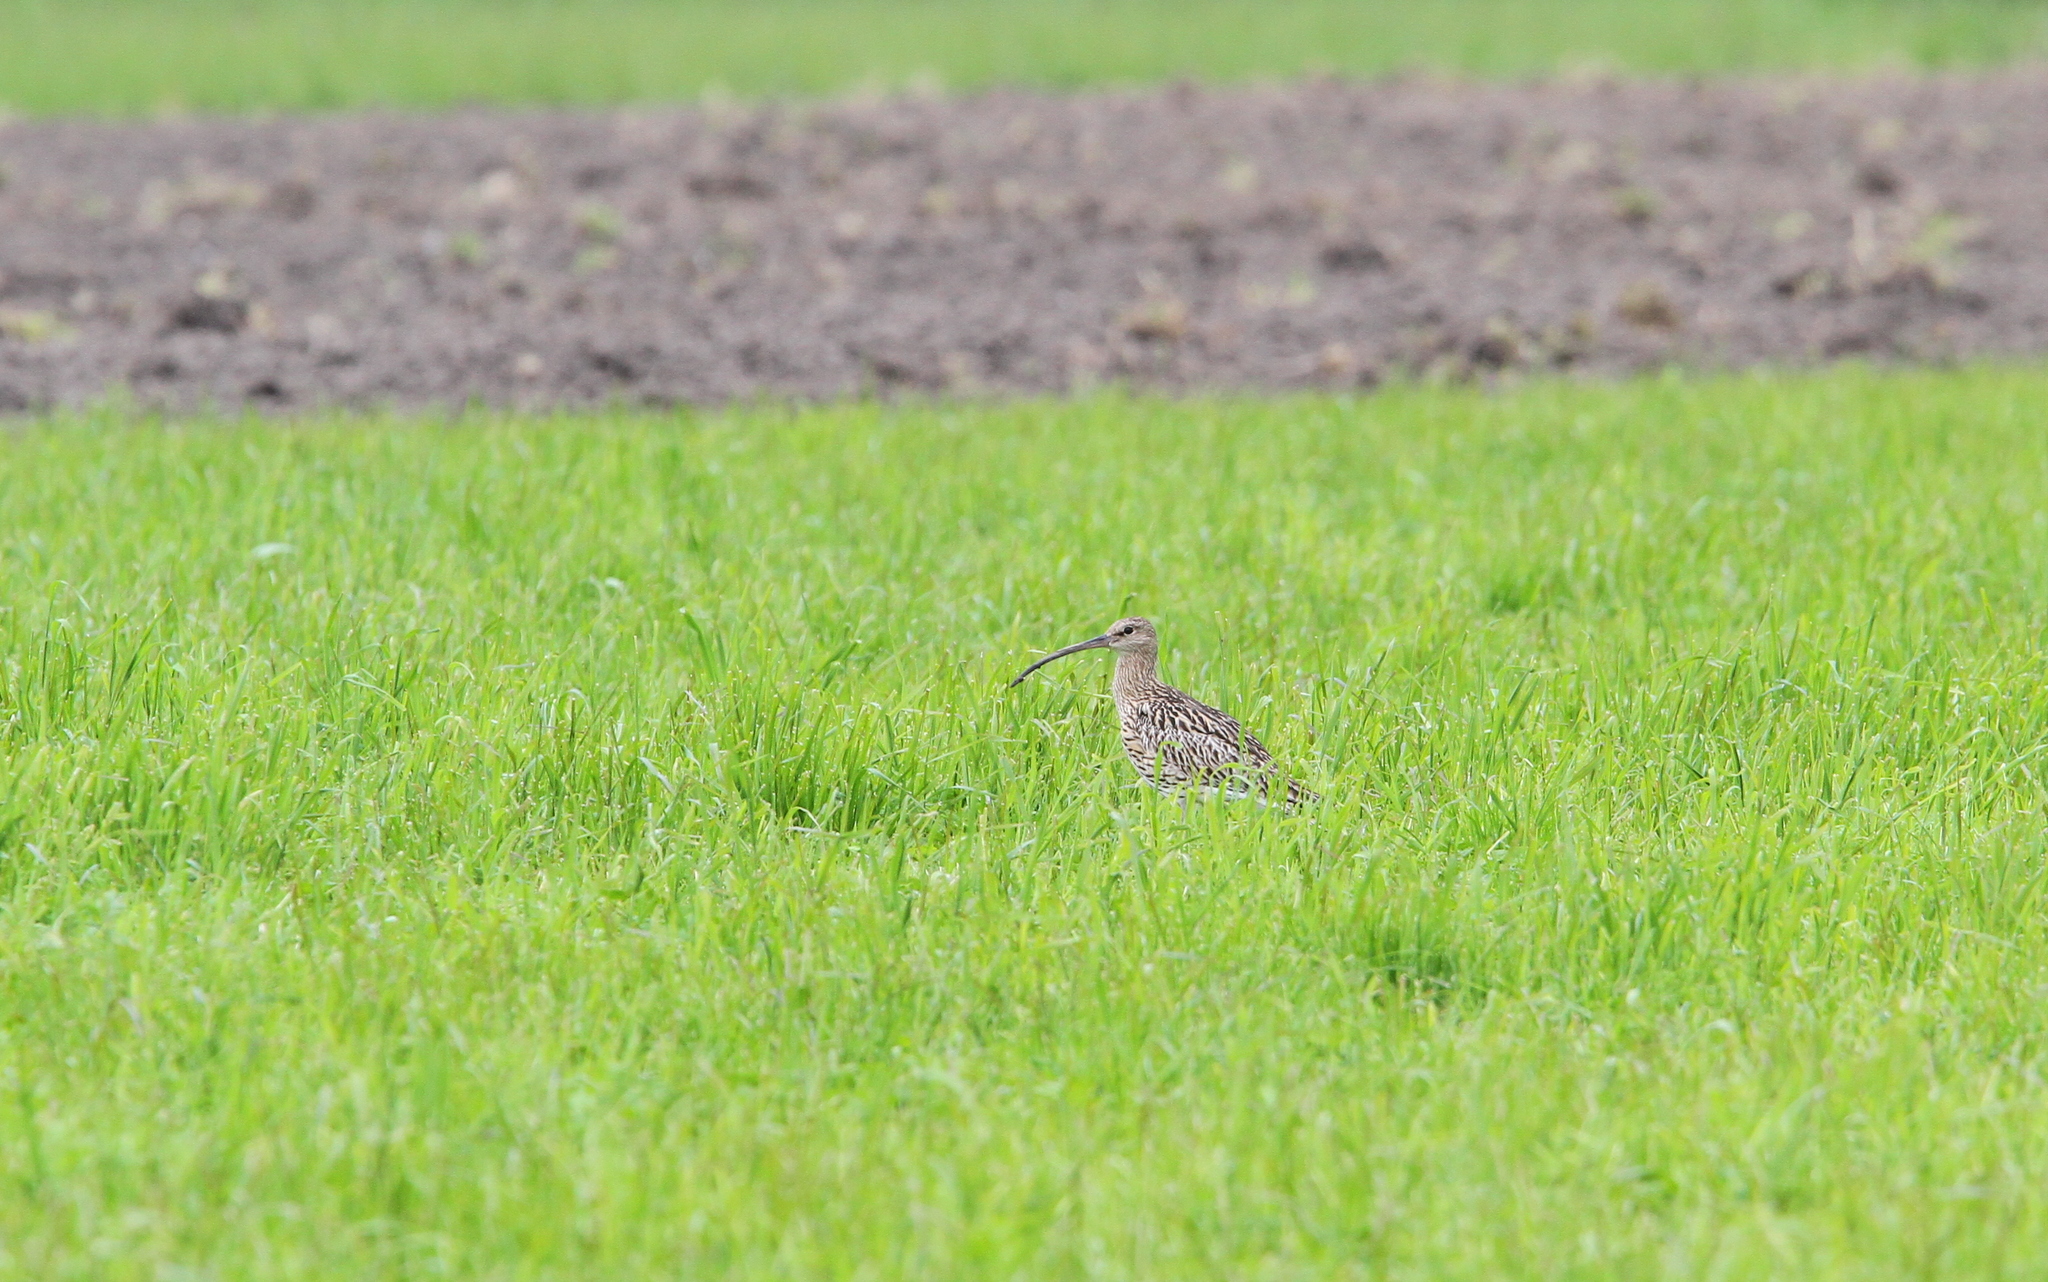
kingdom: Animalia
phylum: Chordata
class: Aves
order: Charadriiformes
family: Scolopacidae
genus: Numenius
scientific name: Numenius arquata
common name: Eurasian curlew
